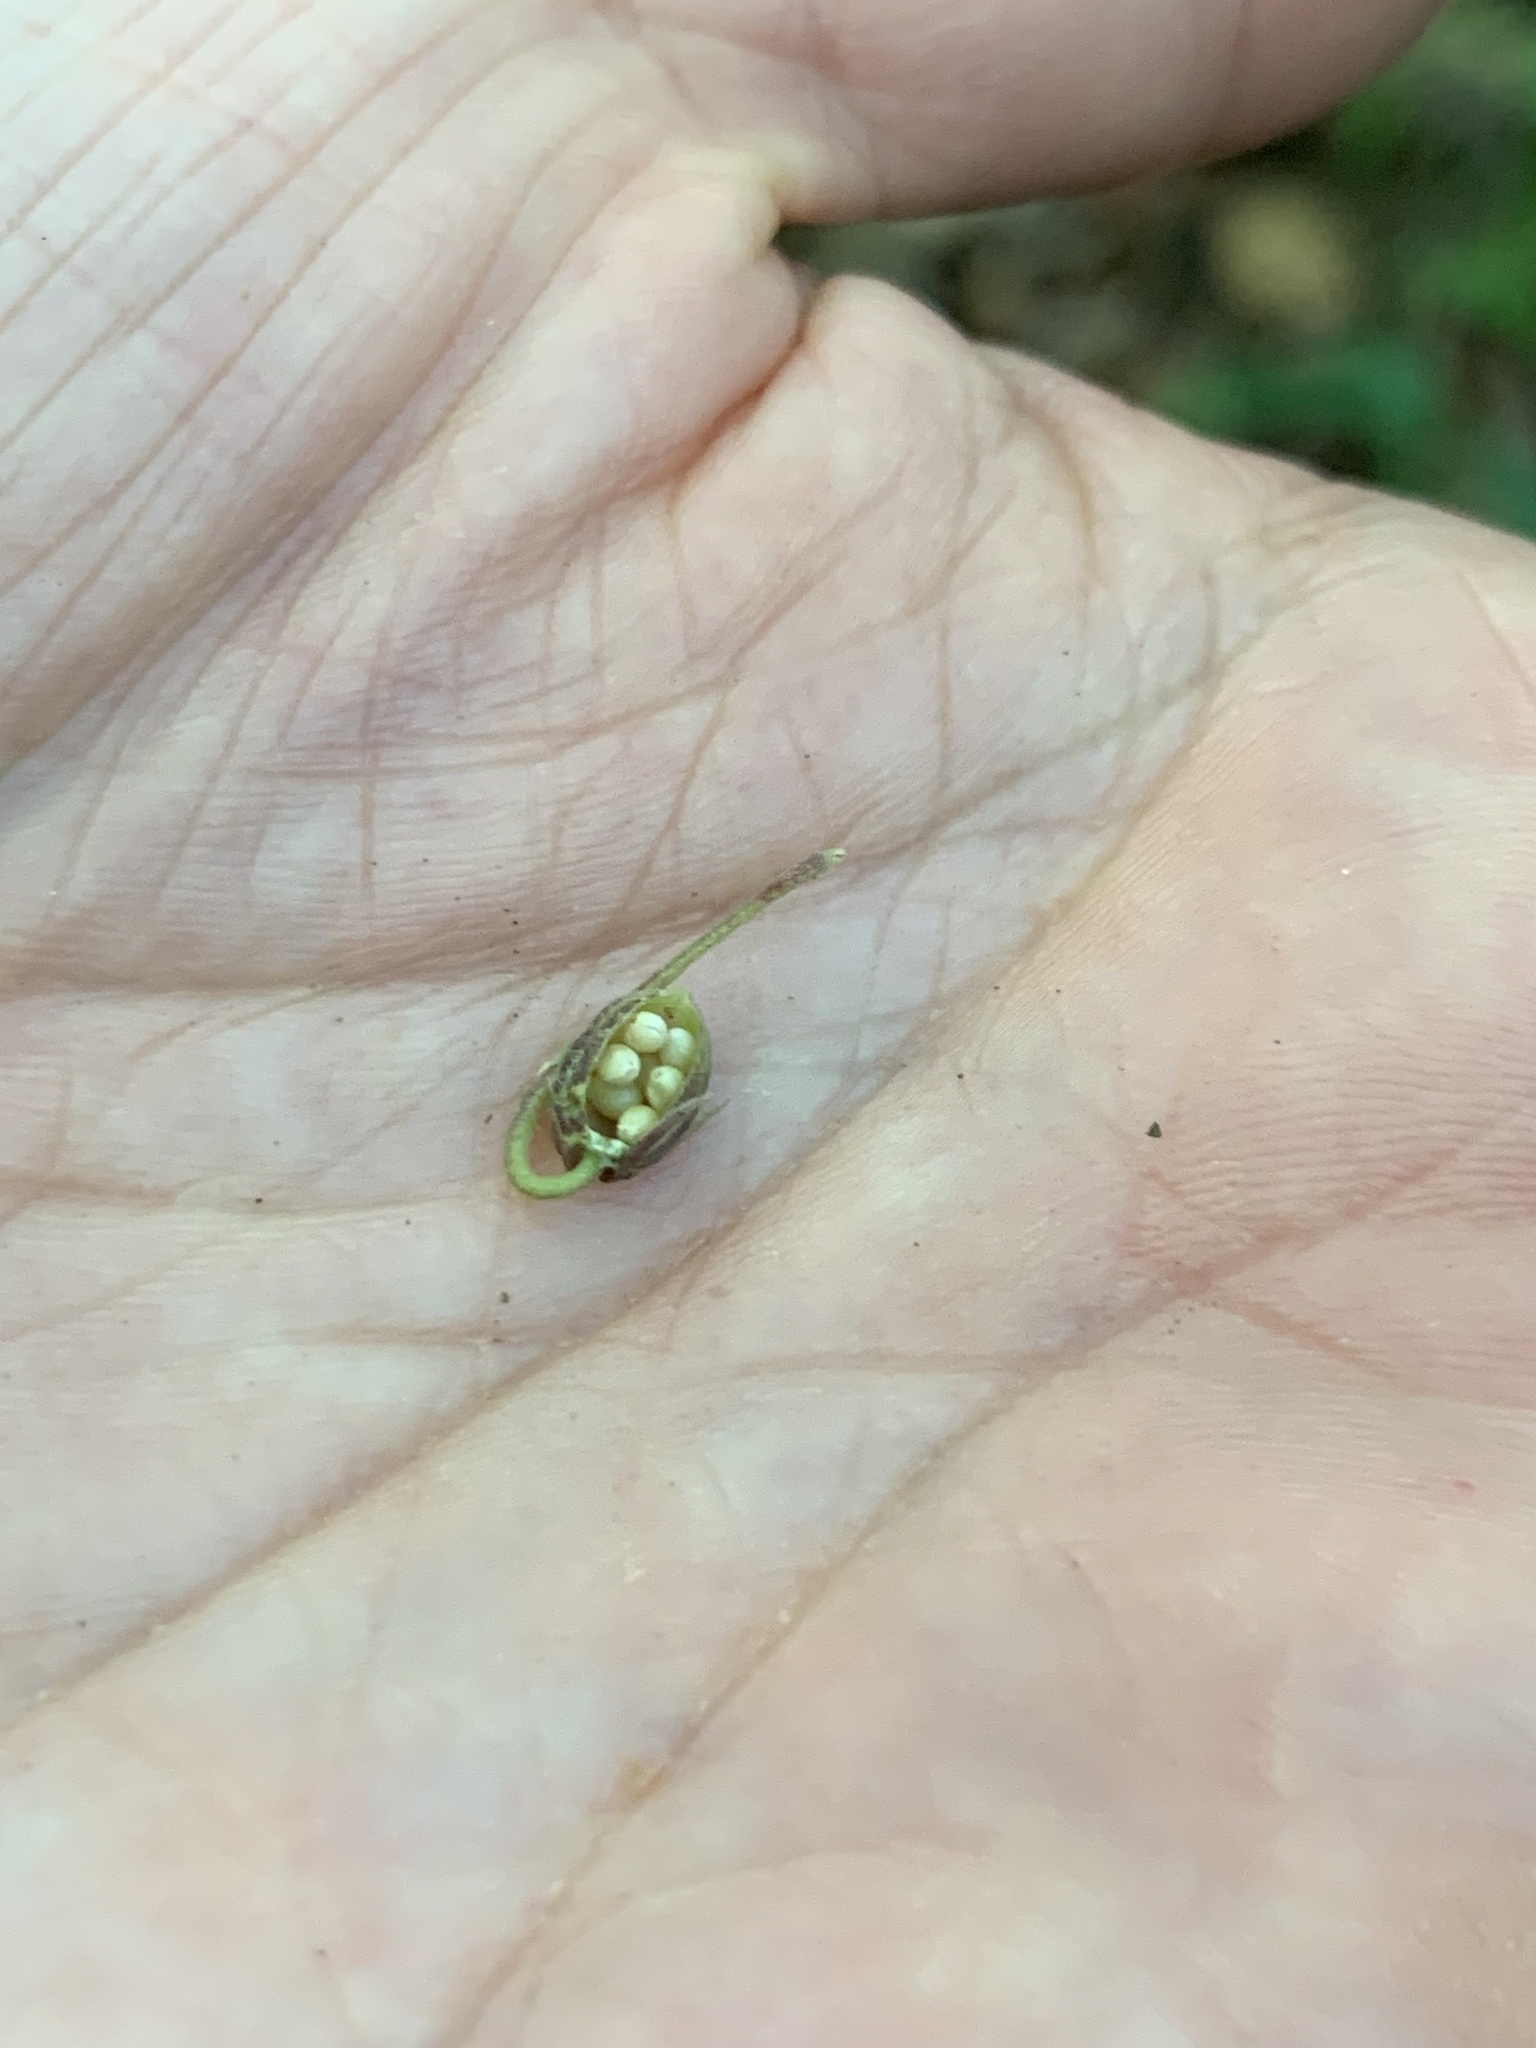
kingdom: Plantae
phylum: Tracheophyta
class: Magnoliopsida
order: Malpighiales
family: Violaceae
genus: Viola
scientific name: Viola walteri
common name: Prostrate southern violet
